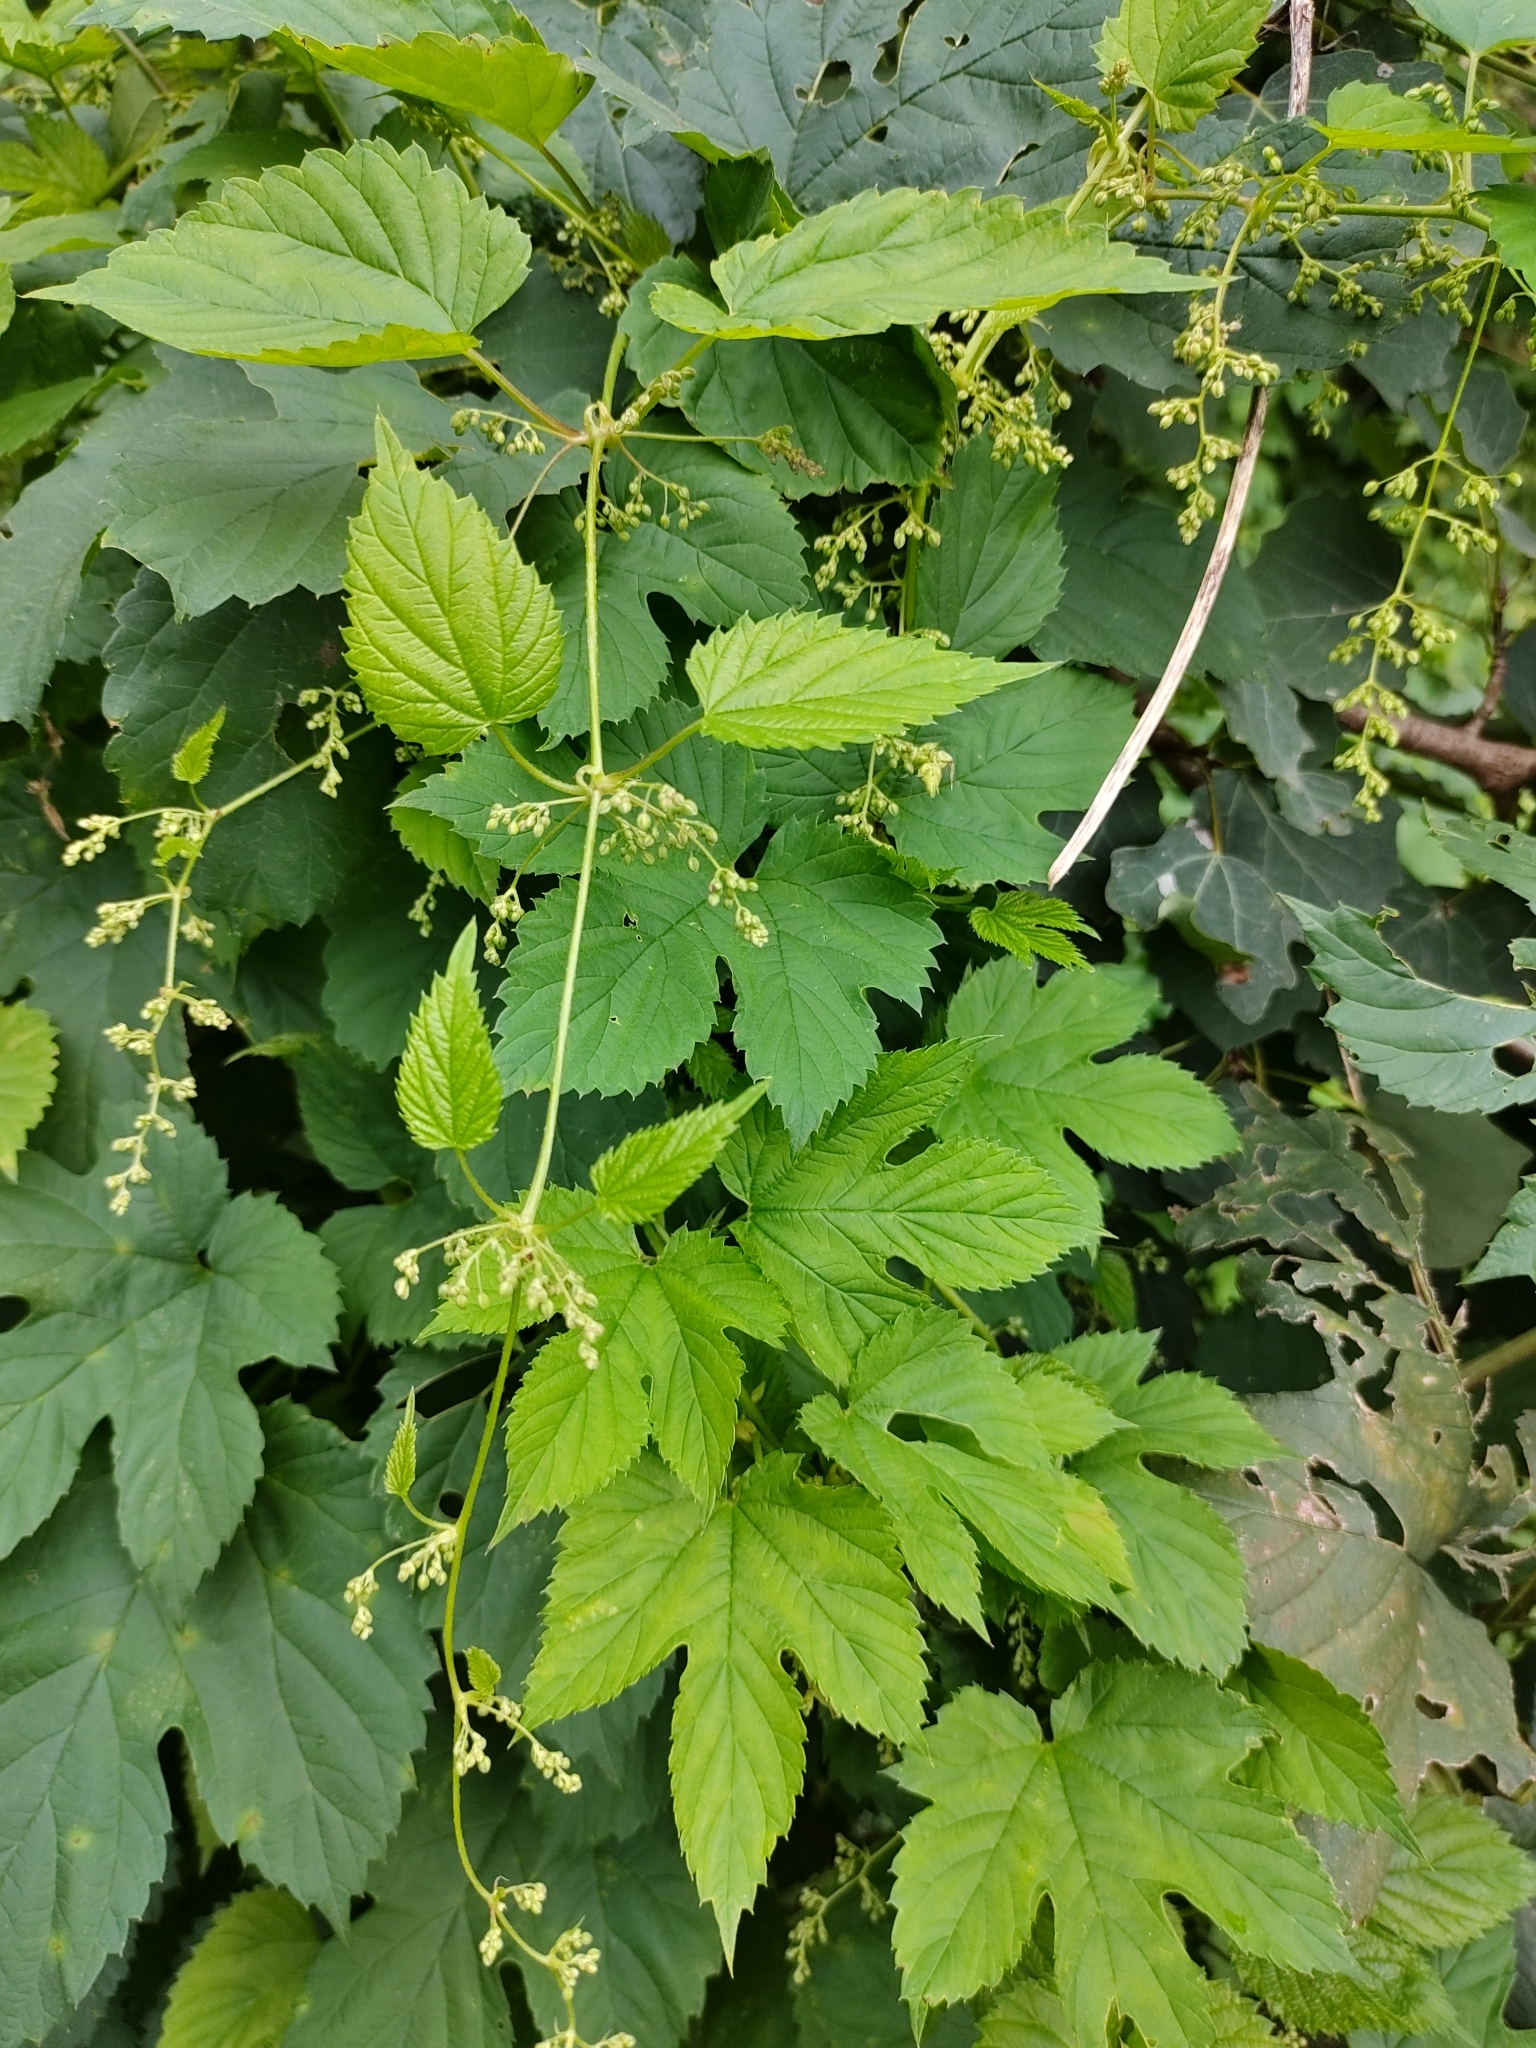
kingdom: Plantae
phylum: Tracheophyta
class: Magnoliopsida
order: Rosales
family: Cannabaceae
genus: Humulus
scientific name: Humulus lupulus
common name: Hop
